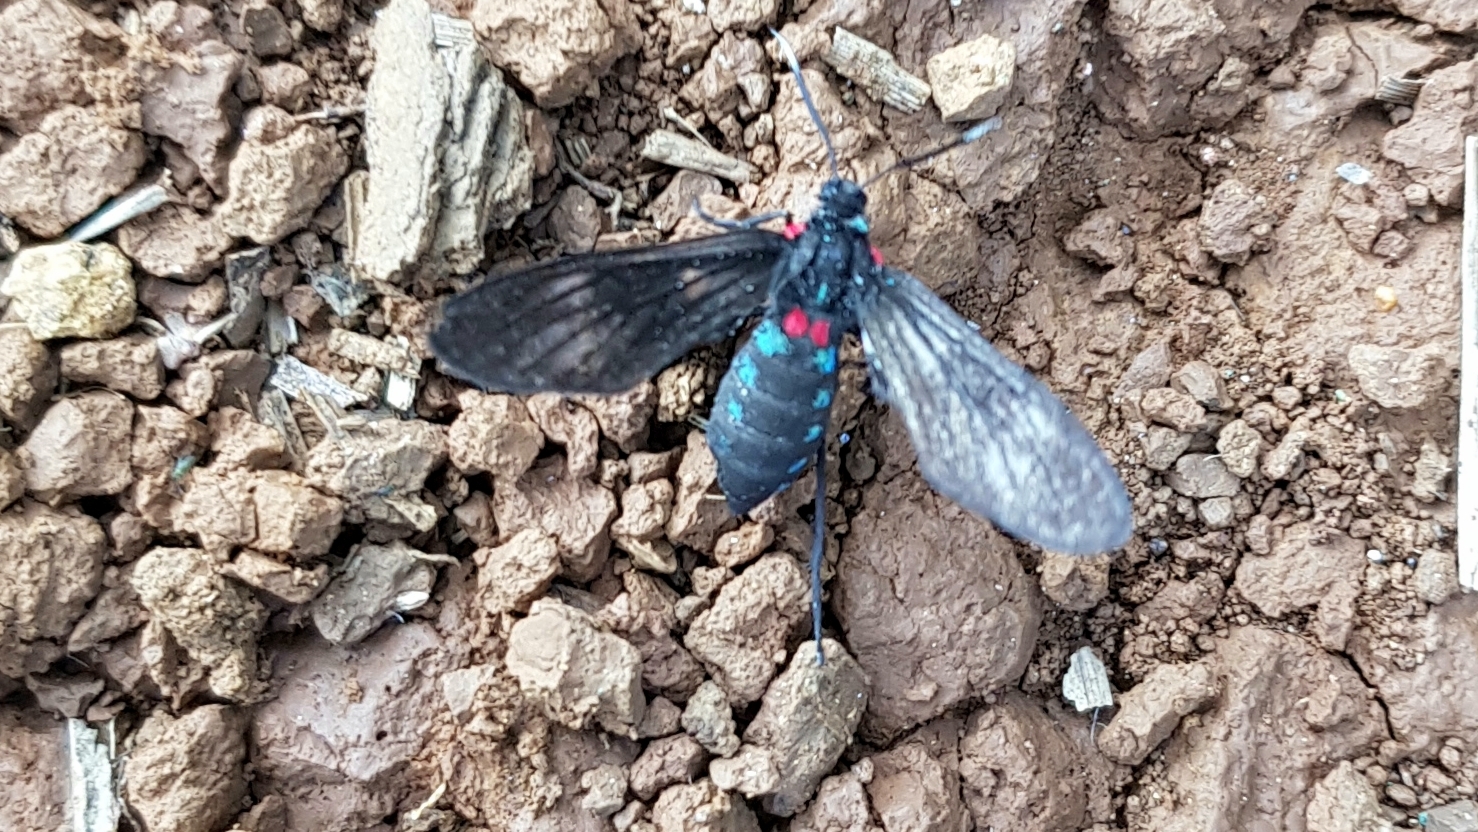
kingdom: Animalia
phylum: Arthropoda
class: Insecta
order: Lepidoptera
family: Erebidae
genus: Saurita
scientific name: Saurita cassandra
